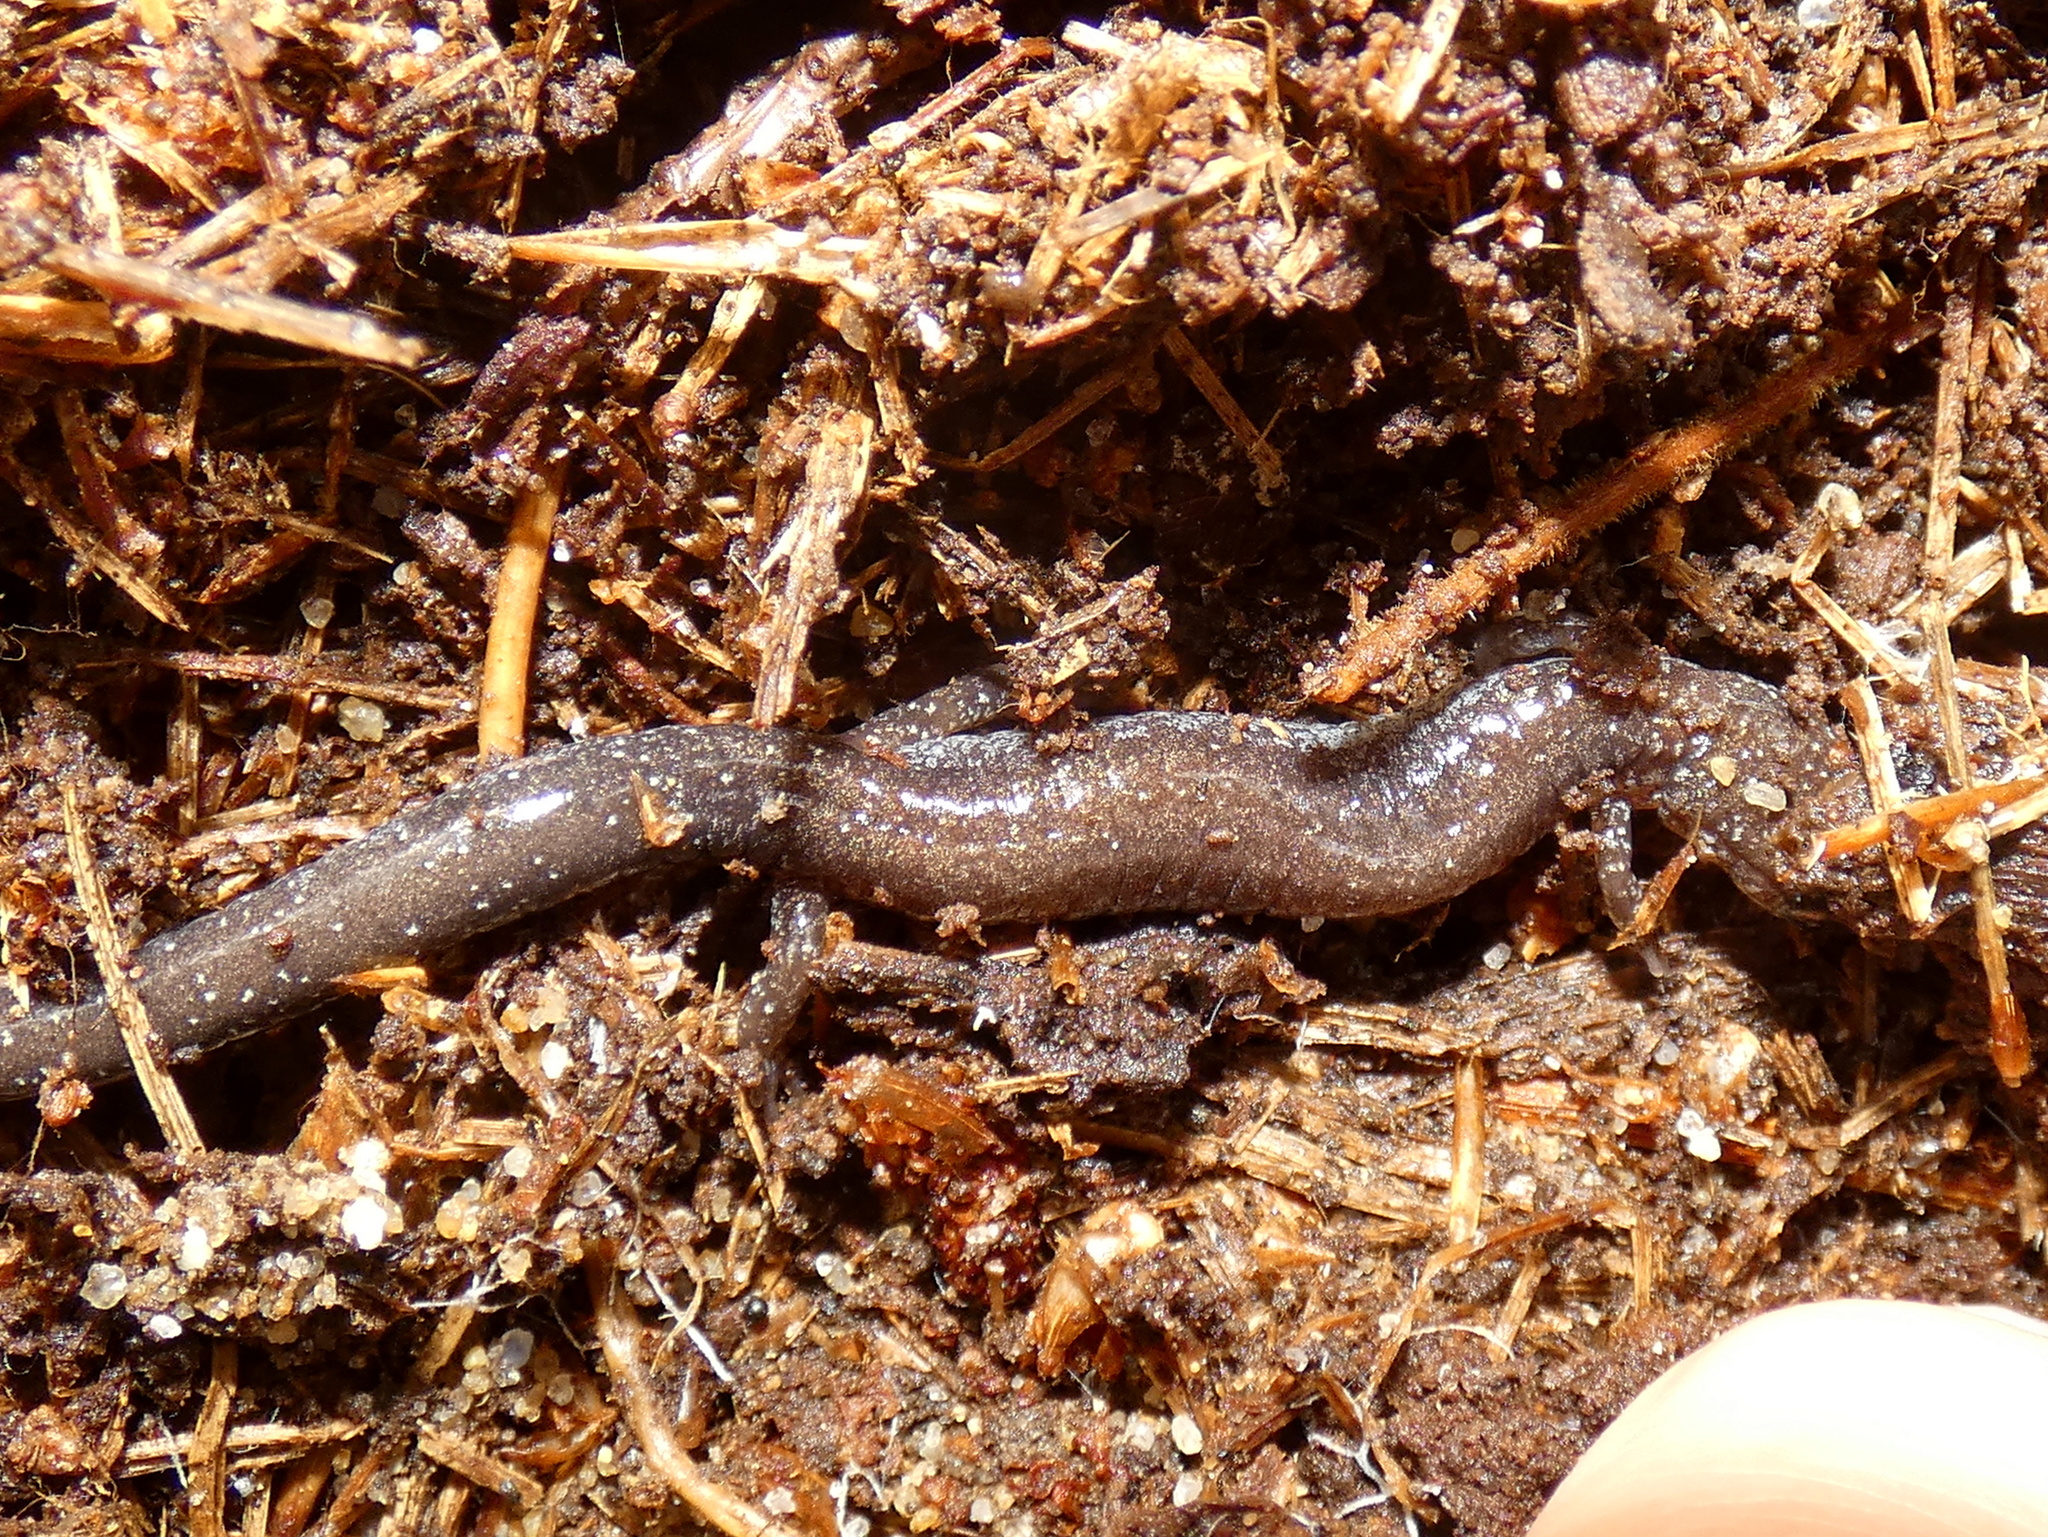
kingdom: Animalia
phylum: Chordata
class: Amphibia
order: Caudata
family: Plethodontidae
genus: Plethodon
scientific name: Plethodon cinereus
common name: Redback salamander
